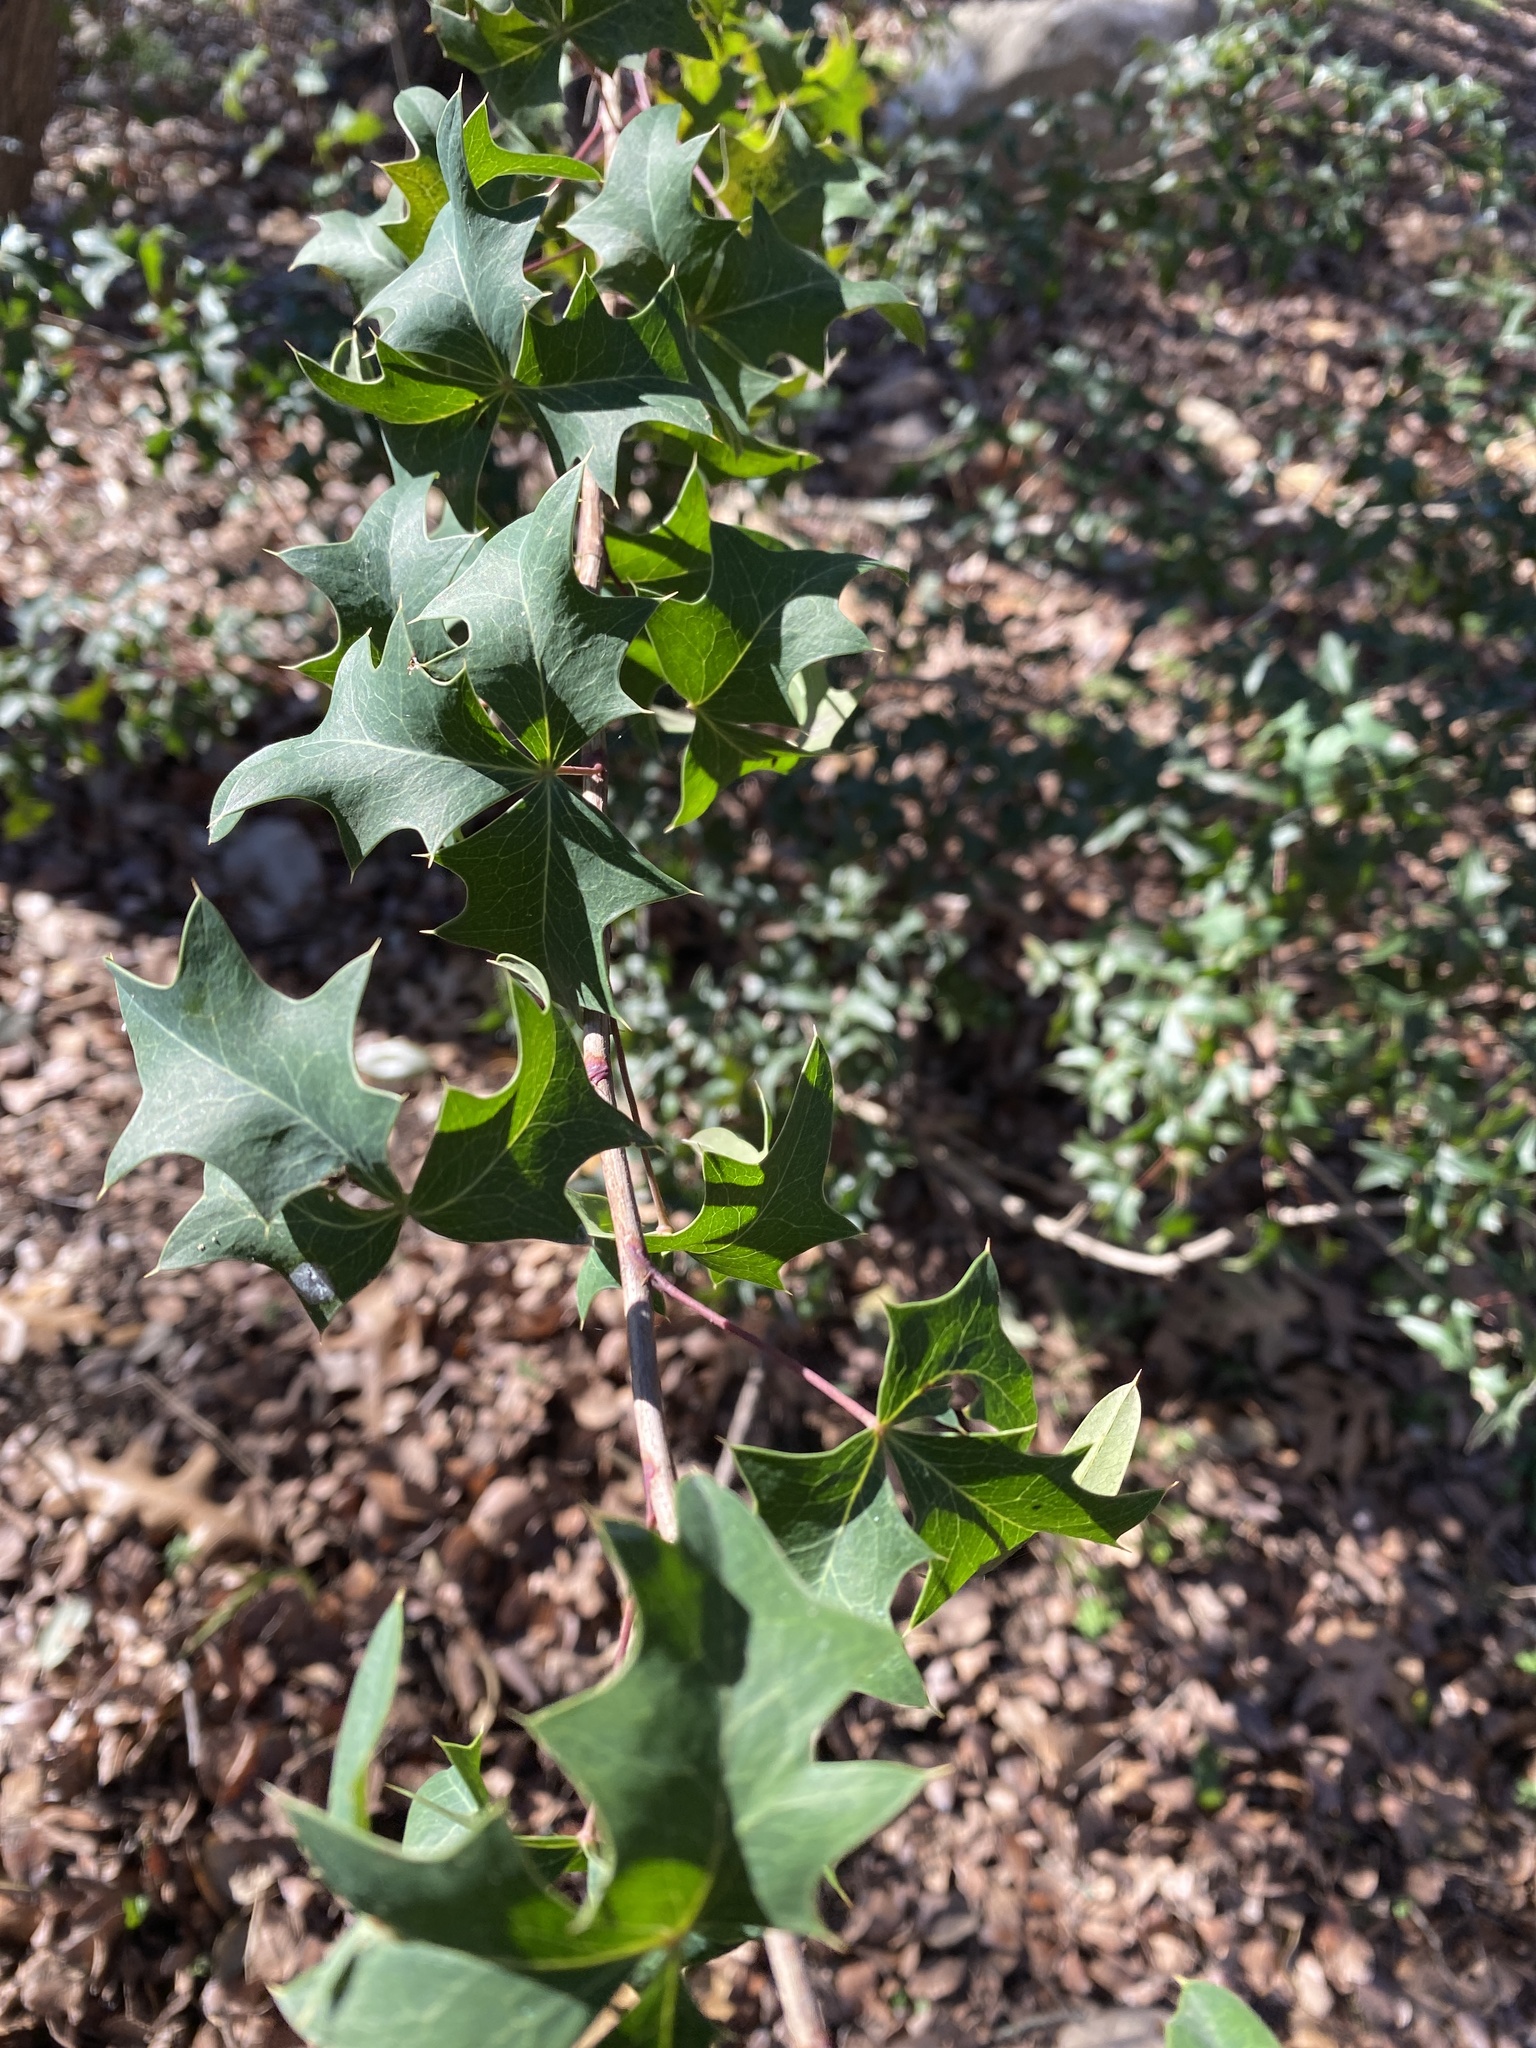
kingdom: Plantae
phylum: Tracheophyta
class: Magnoliopsida
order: Ranunculales
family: Berberidaceae
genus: Alloberberis
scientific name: Alloberberis trifoliolata
